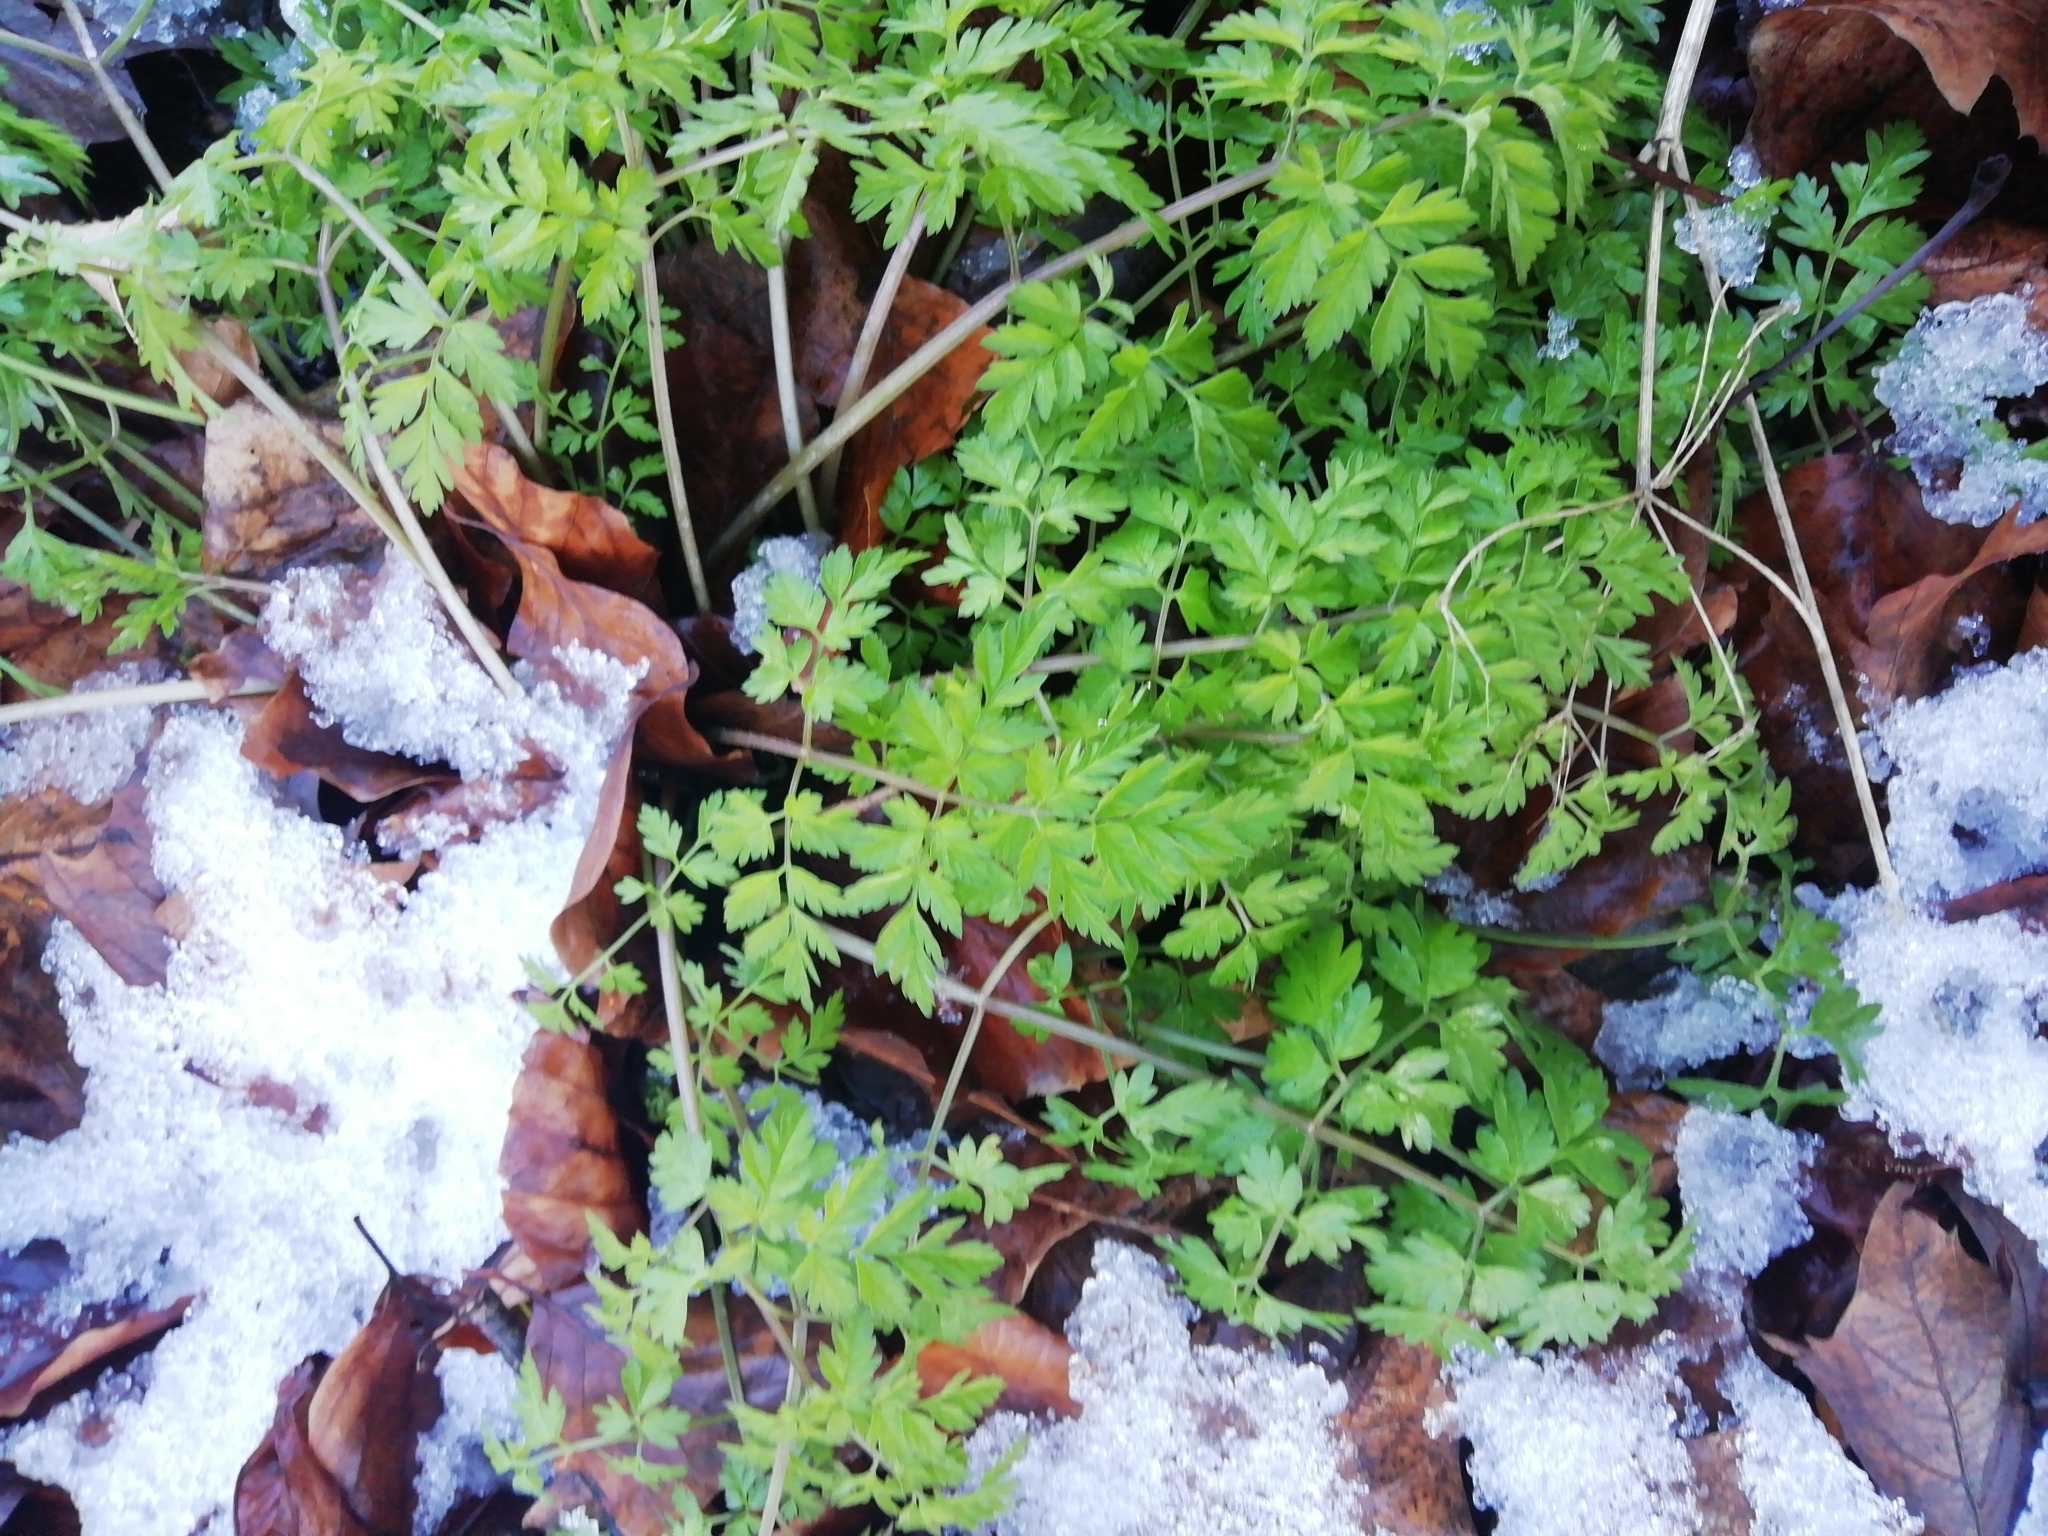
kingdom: Plantae
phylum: Tracheophyta
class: Magnoliopsida
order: Apiales
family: Apiaceae
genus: Anthriscus
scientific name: Anthriscus sylvestris
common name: Cow parsley
